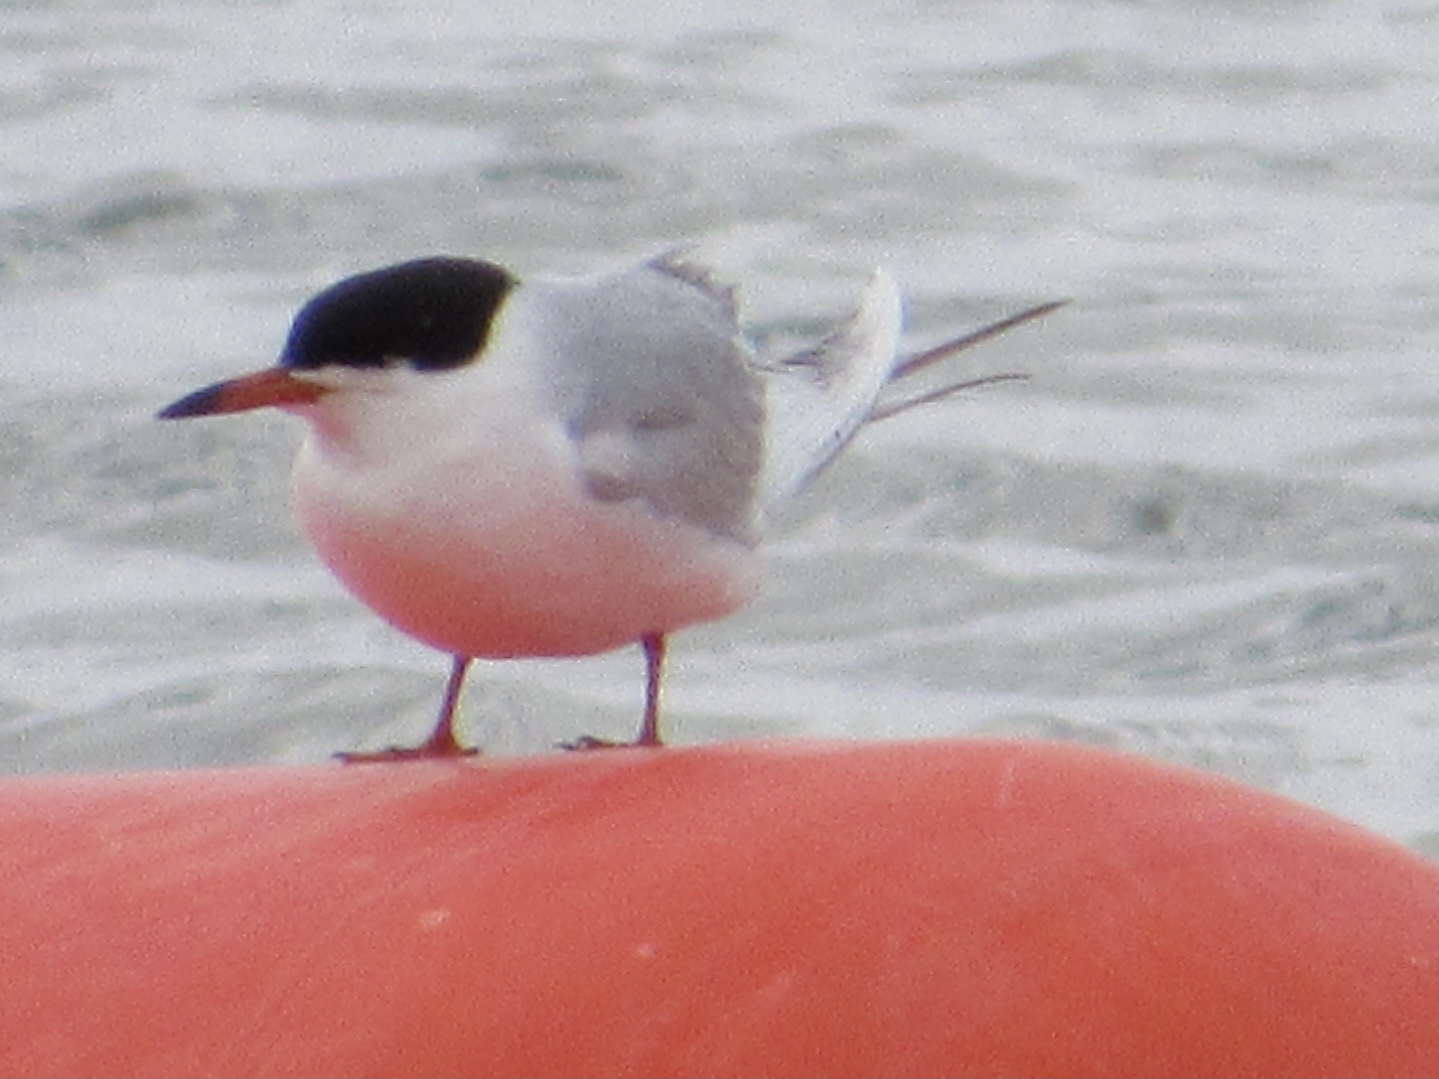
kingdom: Animalia
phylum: Chordata
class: Aves
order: Charadriiformes
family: Laridae
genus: Sterna
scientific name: Sterna forsteri
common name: Forster's tern
